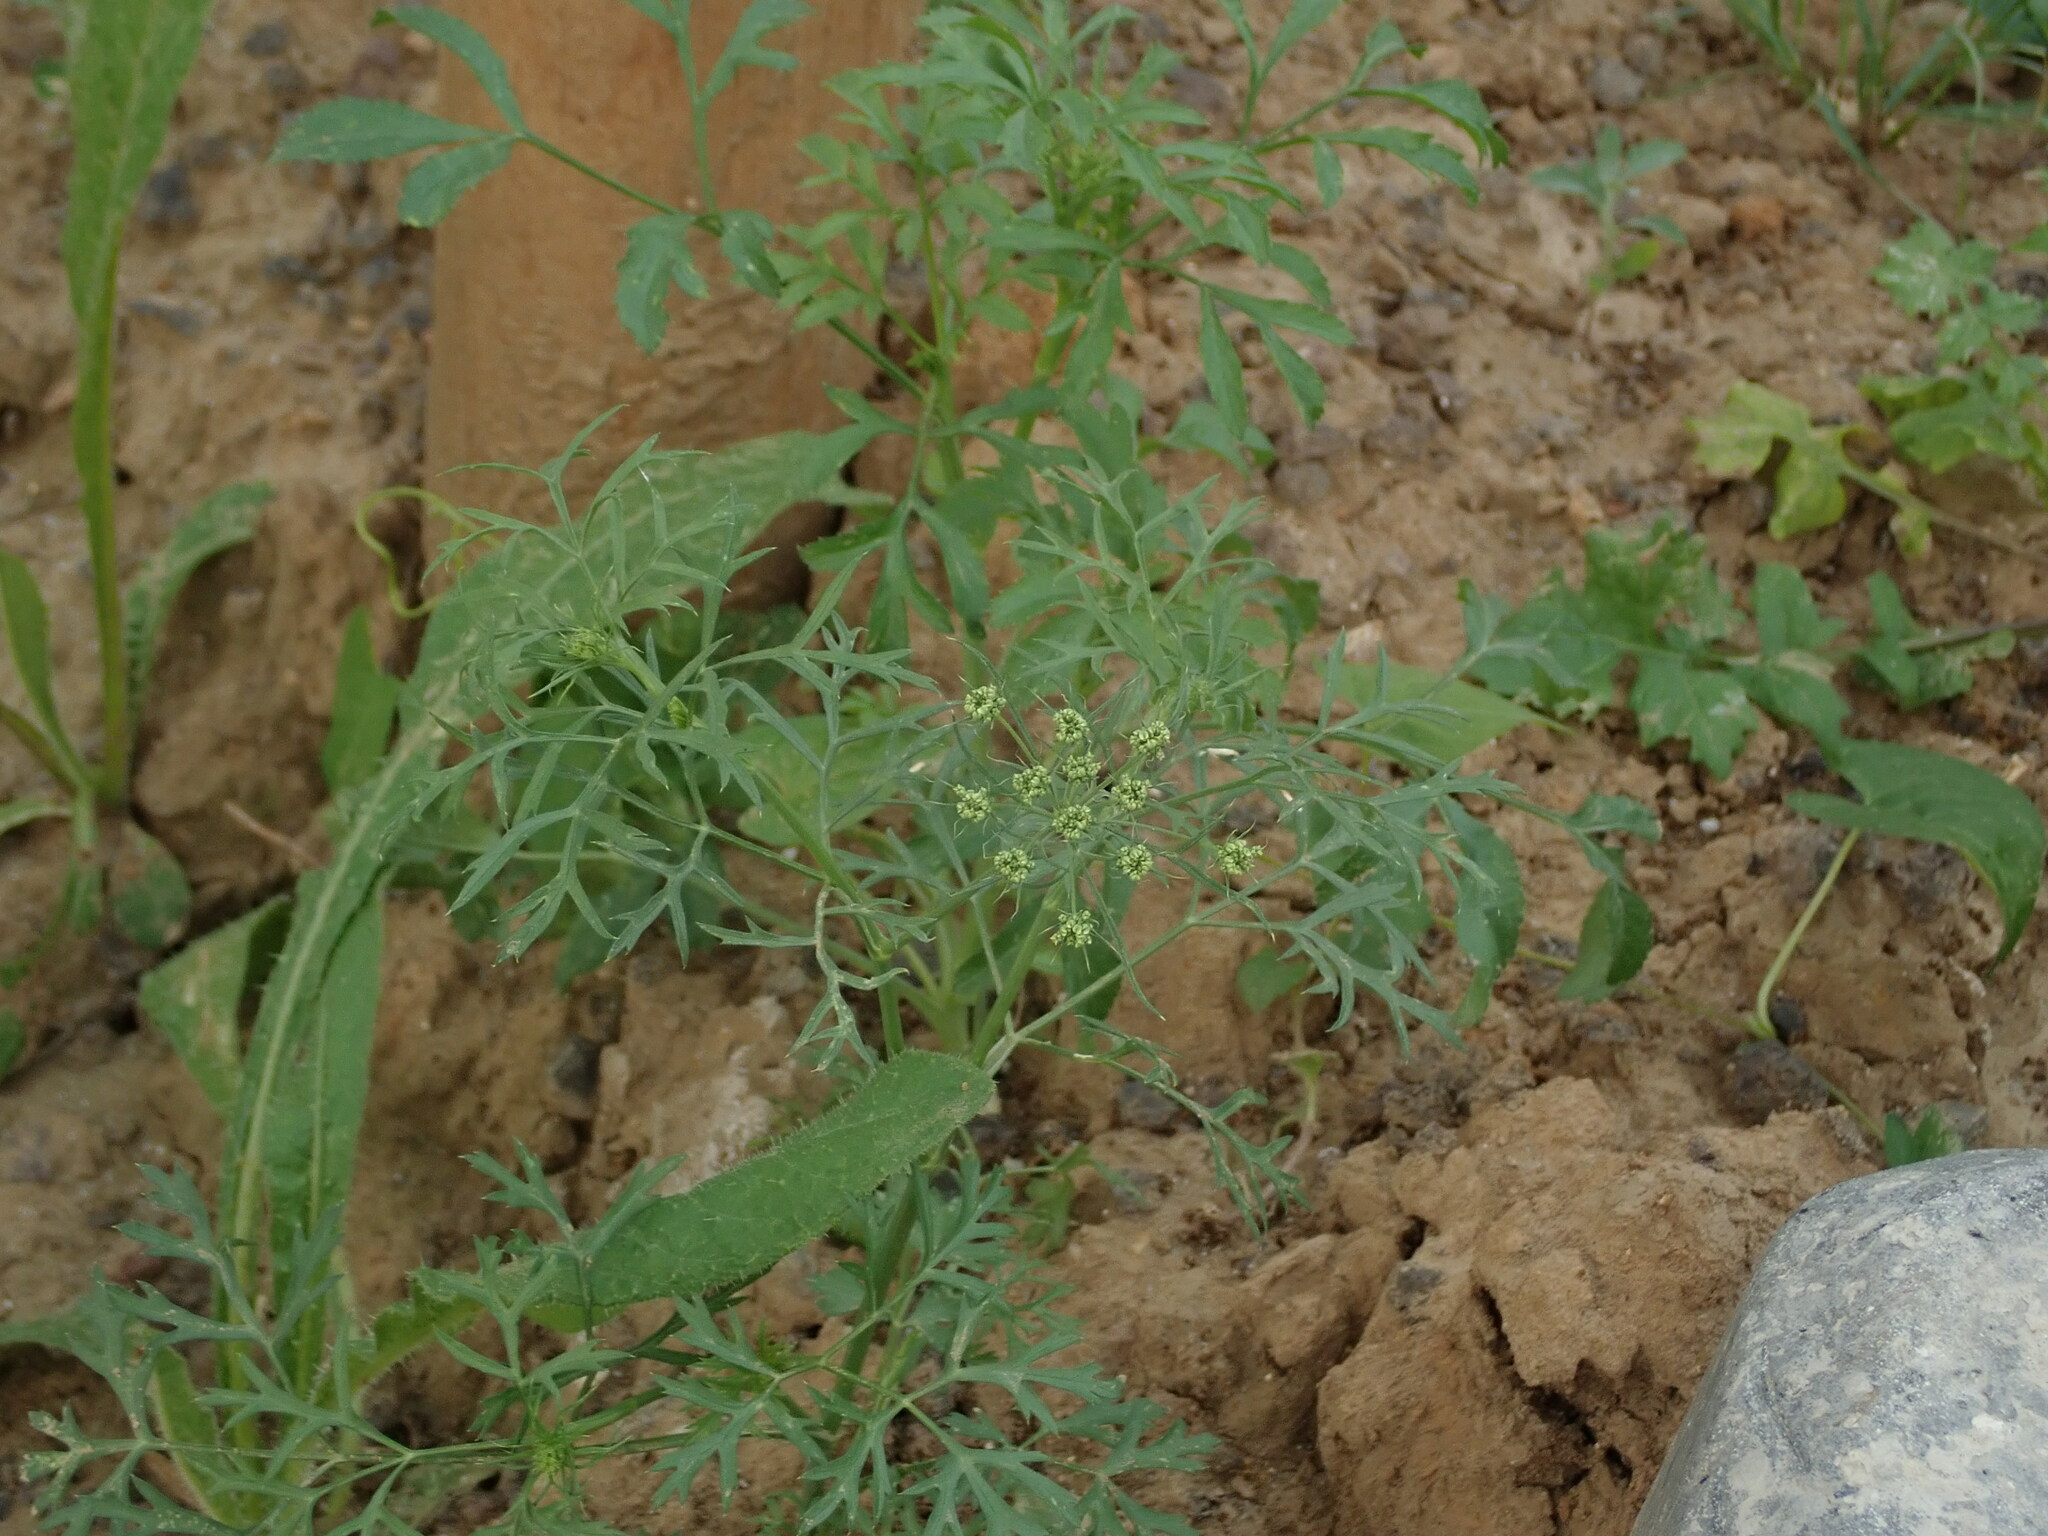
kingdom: Plantae
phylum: Tracheophyta
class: Magnoliopsida
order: Apiales
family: Apiaceae
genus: Ammi
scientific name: Ammi majus
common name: Bullwort
